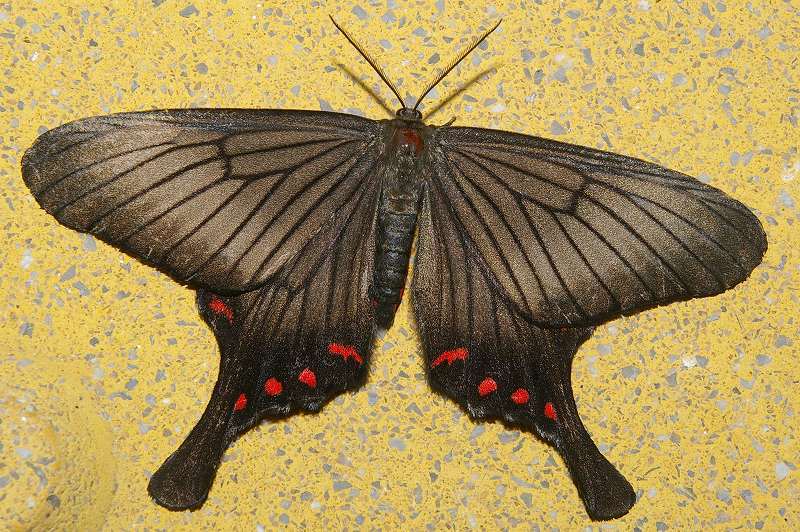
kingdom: Animalia
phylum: Arthropoda
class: Insecta
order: Lepidoptera
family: Epicopeiidae
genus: Epicopeia
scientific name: Epicopeia hainesii
